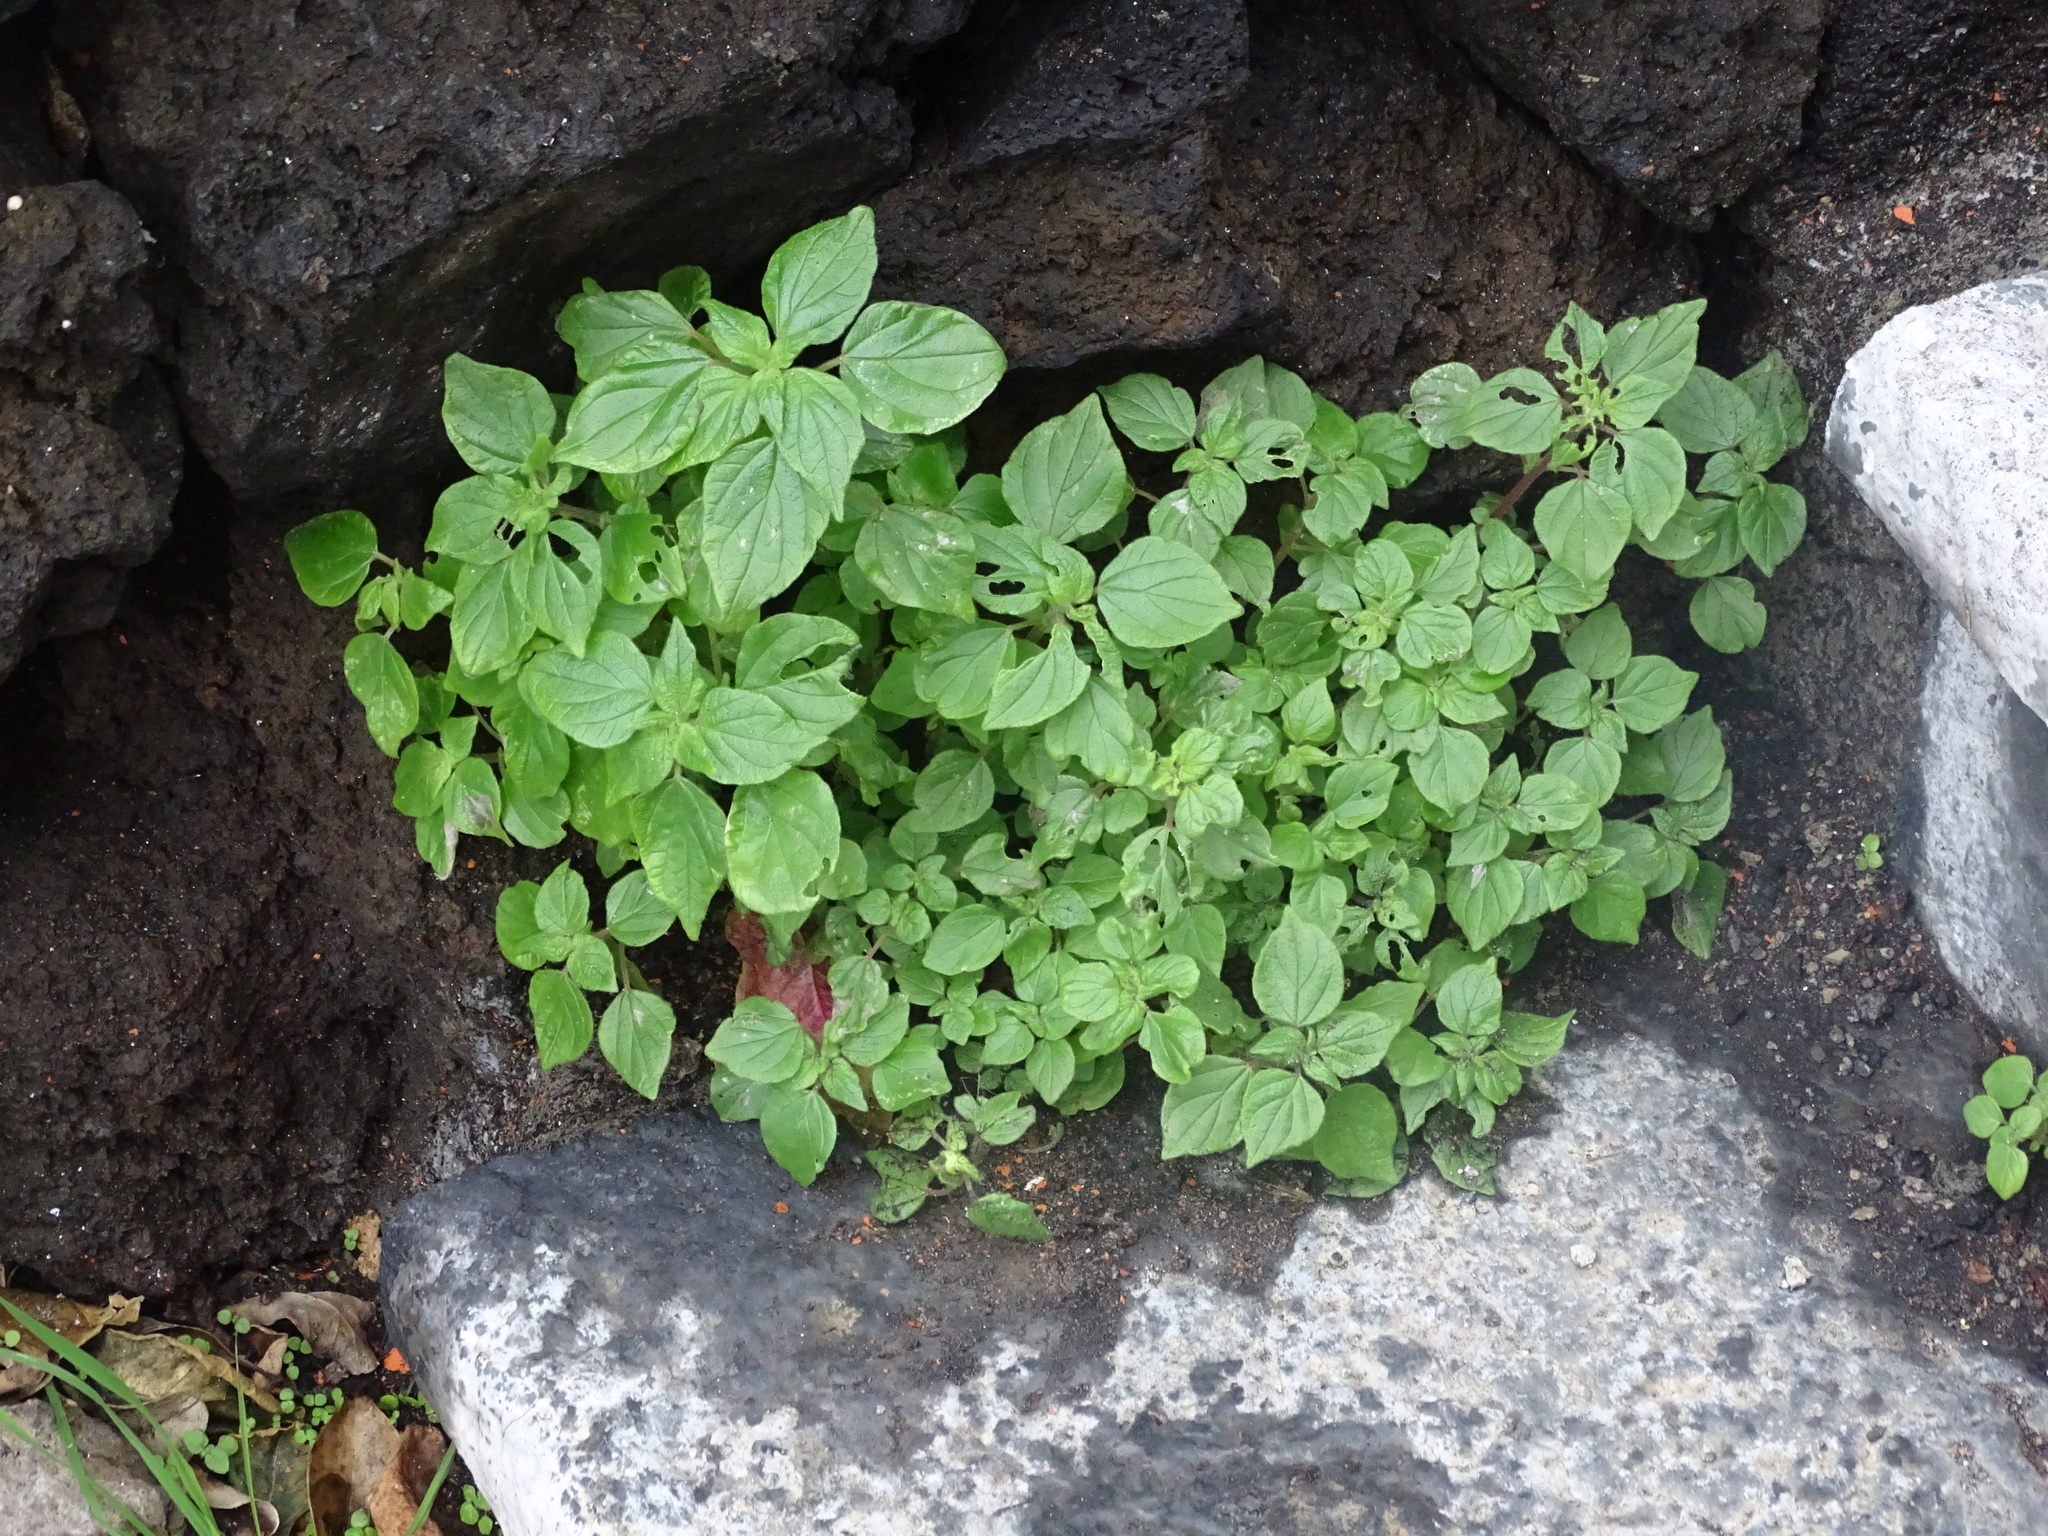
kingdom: Plantae
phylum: Tracheophyta
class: Magnoliopsida
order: Rosales
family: Urticaceae
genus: Parietaria
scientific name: Parietaria judaica
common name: Pellitory-of-the-wall
